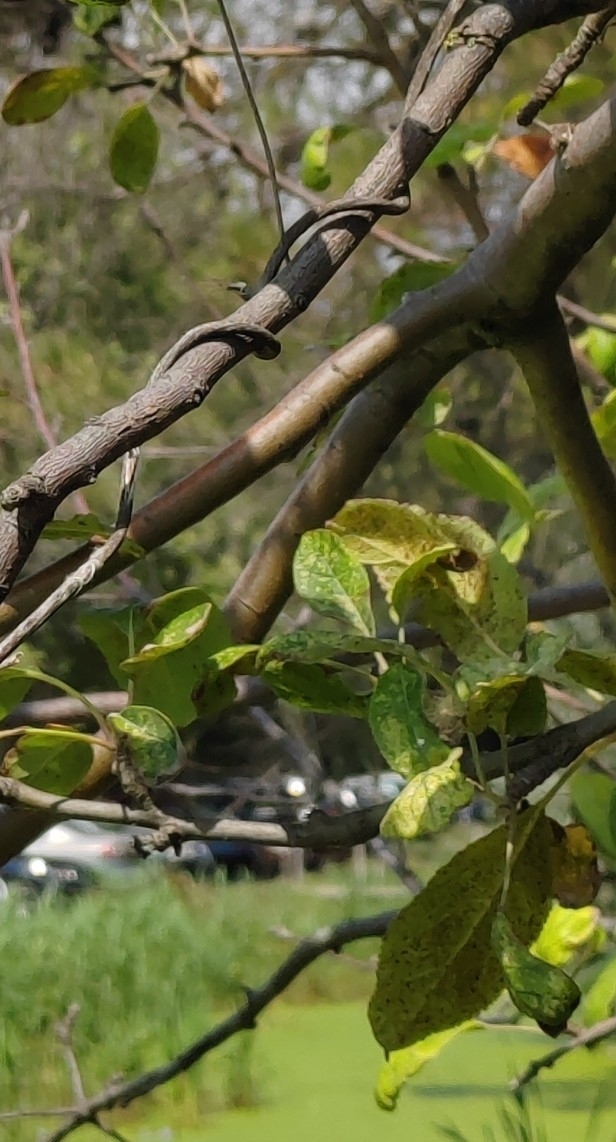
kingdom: Plantae
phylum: Tracheophyta
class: Magnoliopsida
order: Rosales
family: Rosaceae
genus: Malus
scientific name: Malus domestica
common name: Apple
